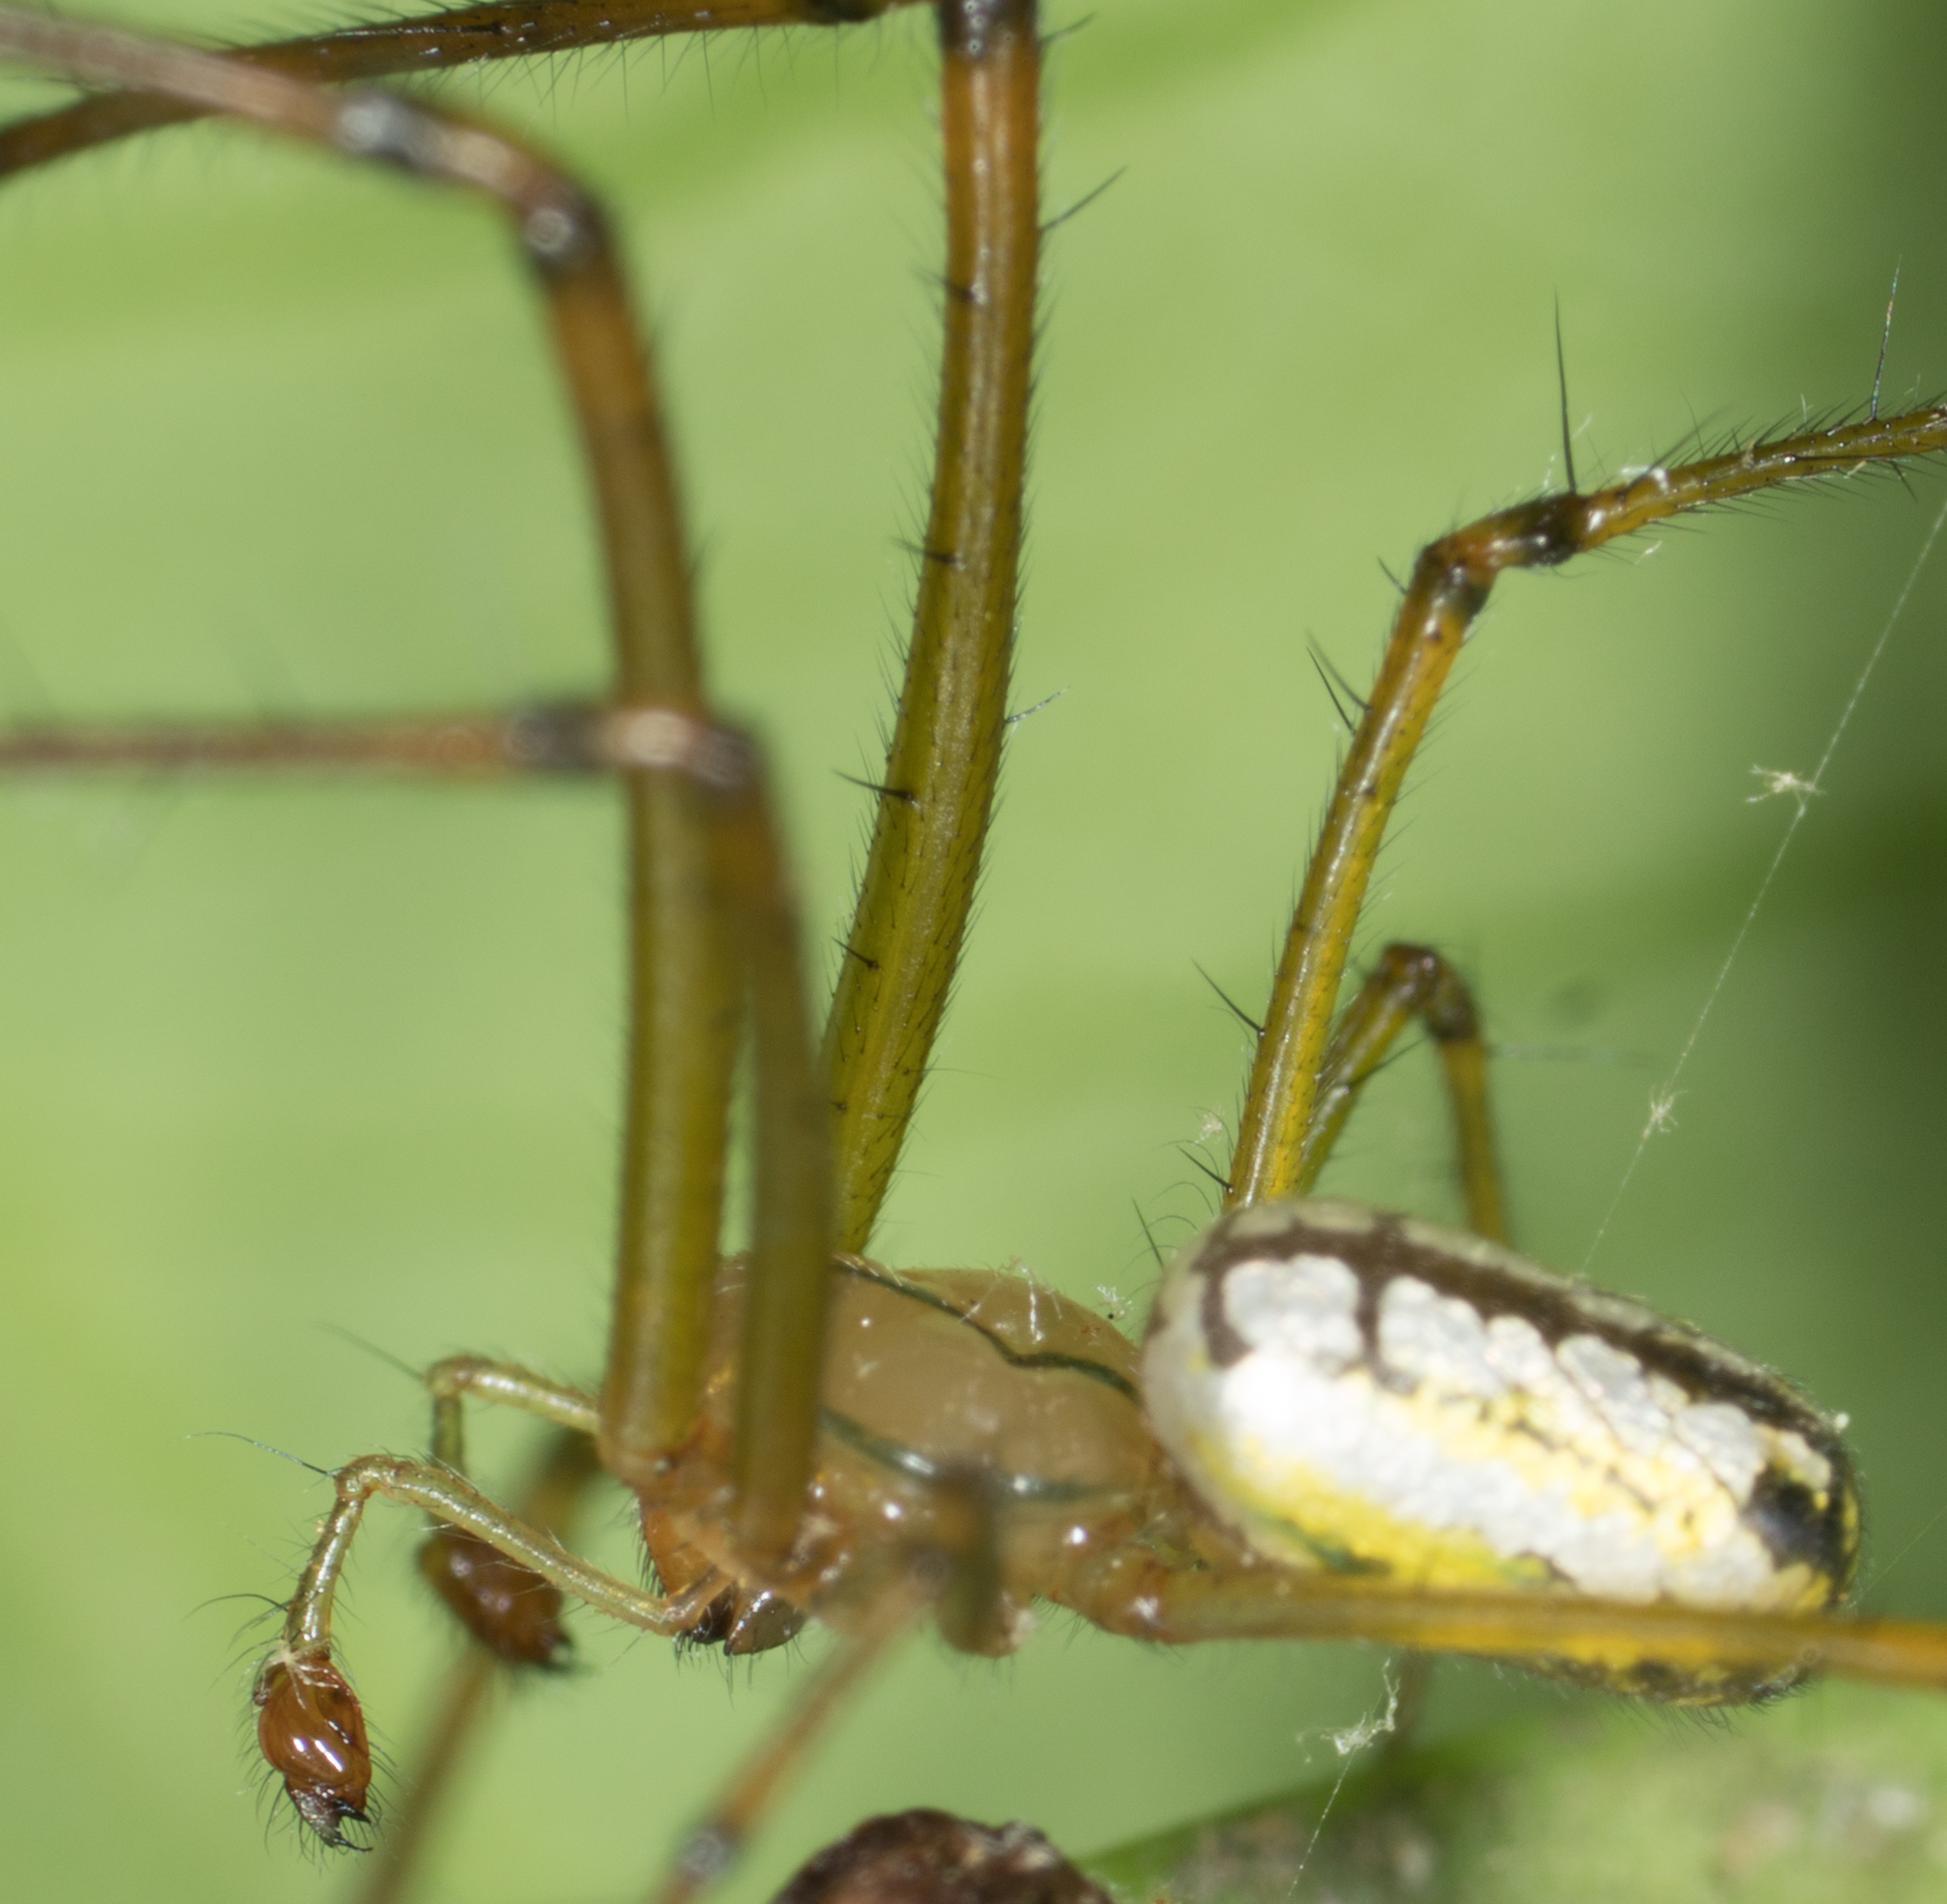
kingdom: Animalia
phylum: Arthropoda
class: Arachnida
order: Araneae
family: Tetragnathidae
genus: Leucauge
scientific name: Leucauge venusta
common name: Longjawed orb weavers
